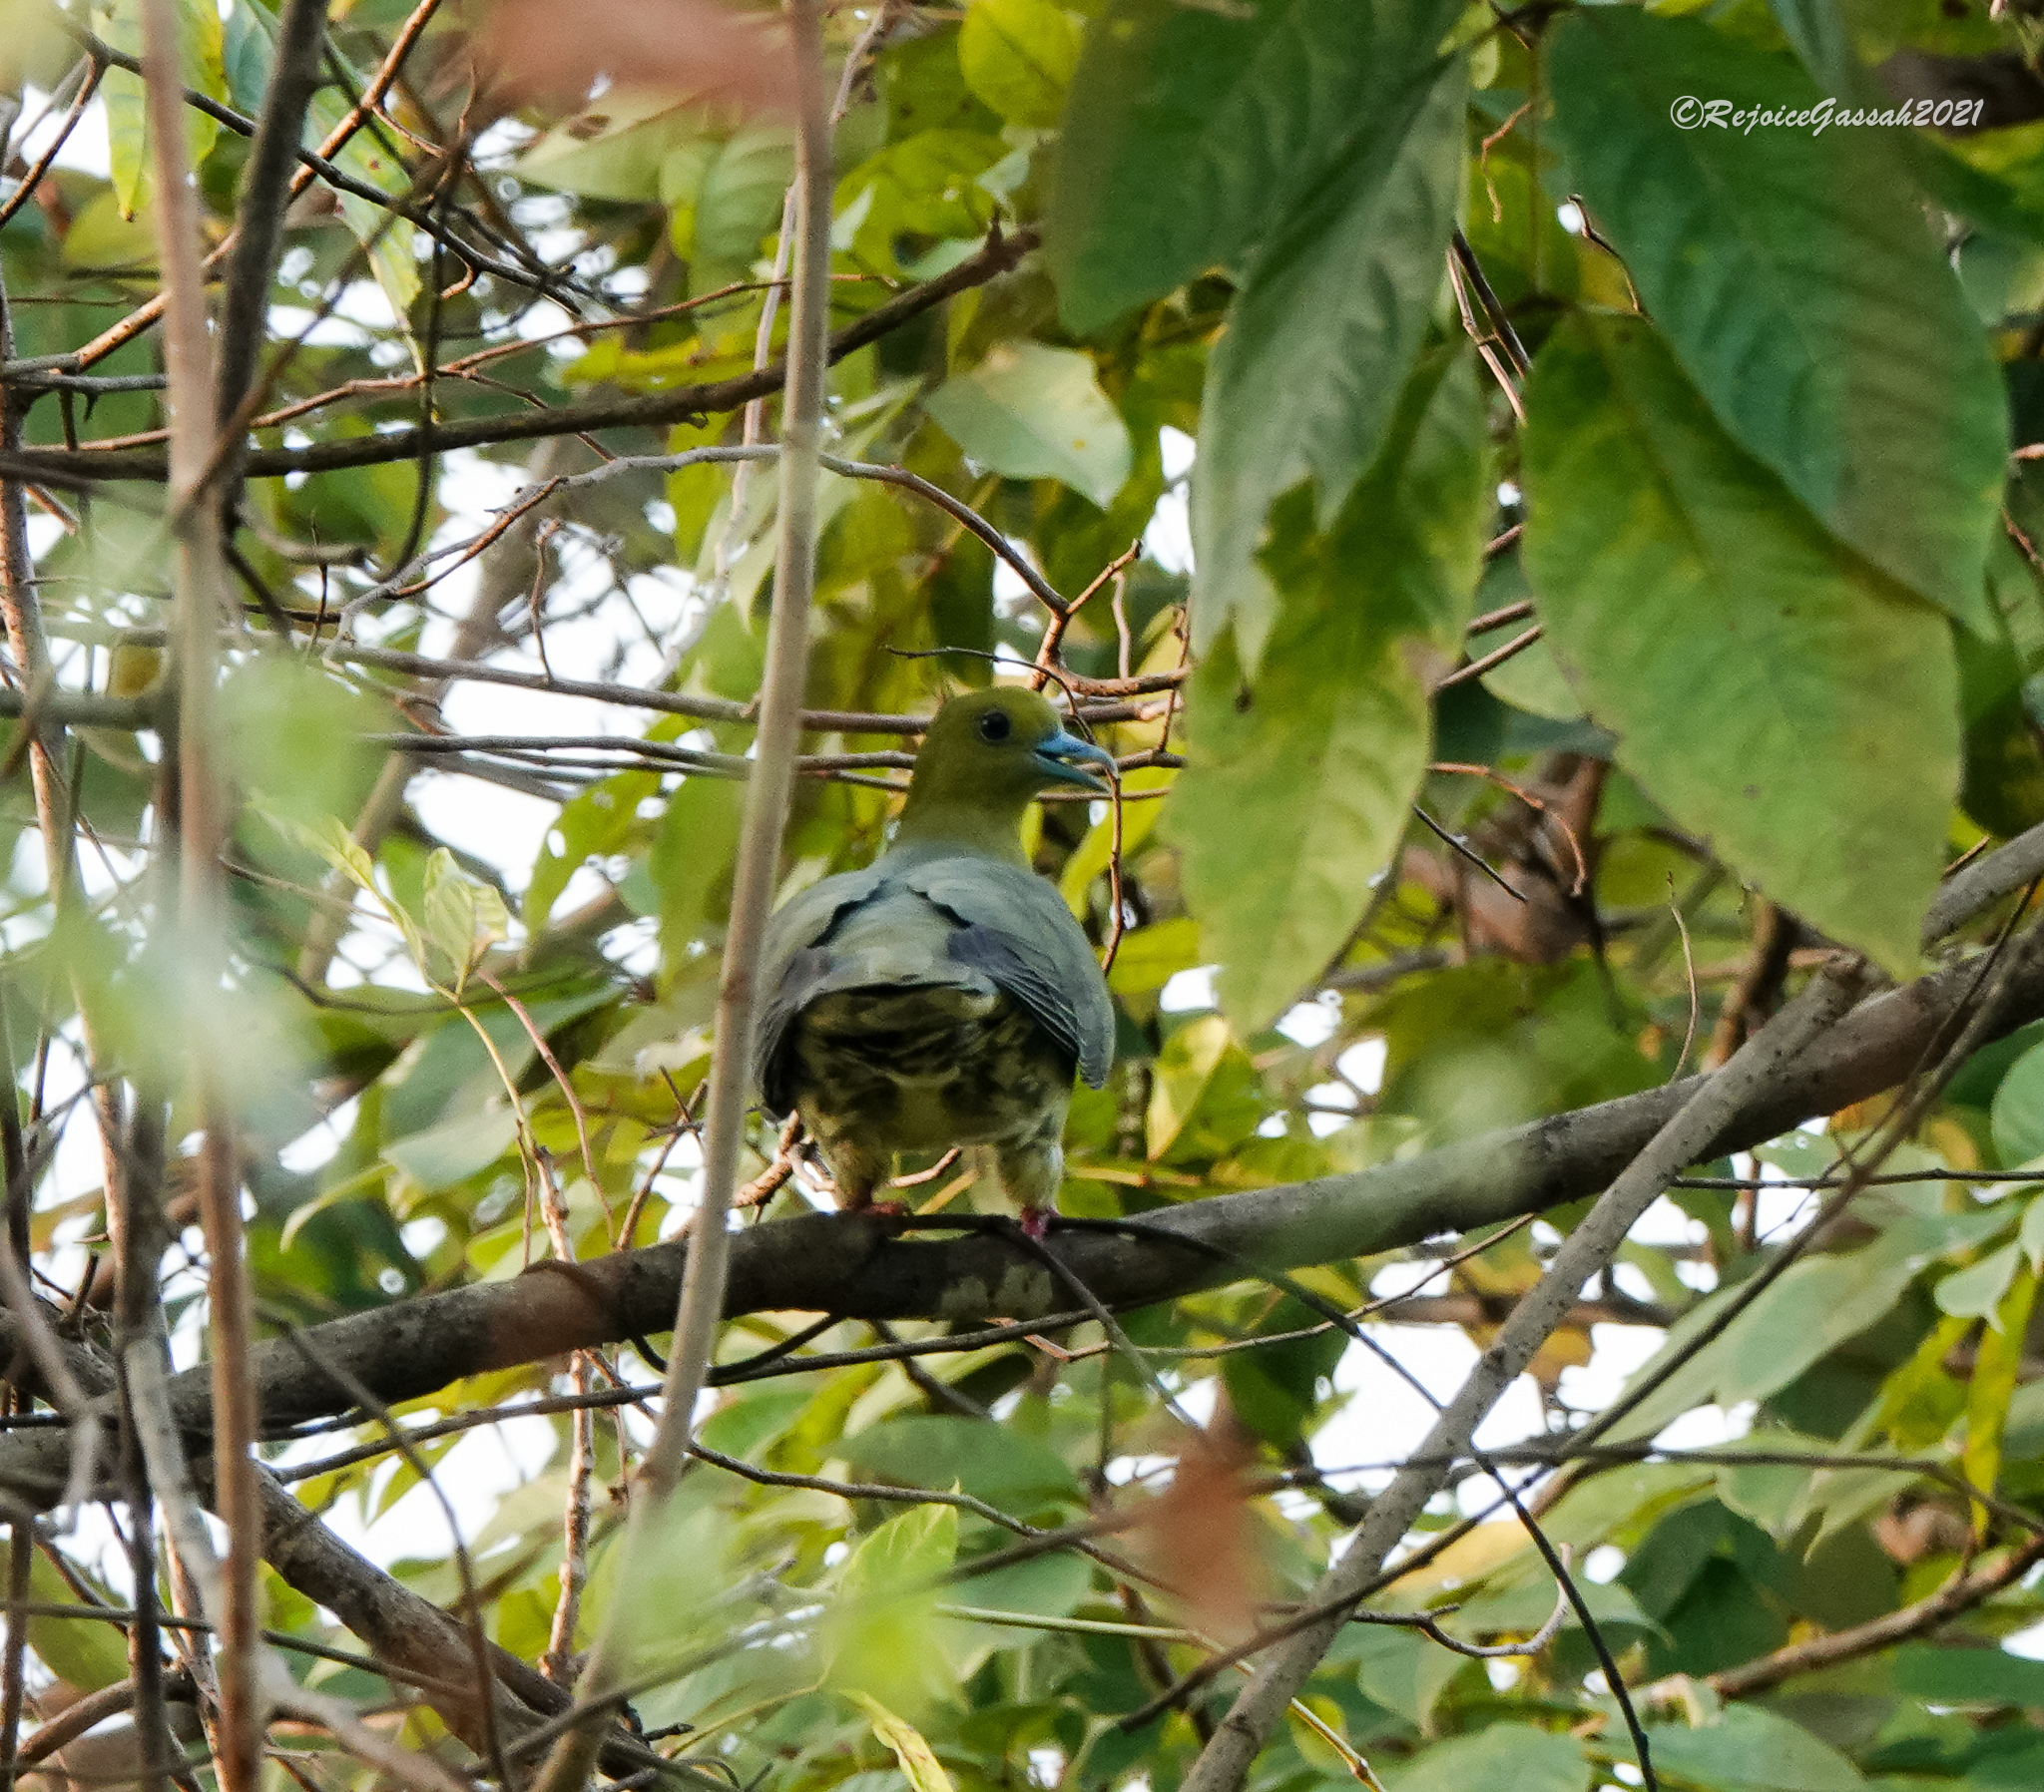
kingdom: Animalia
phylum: Chordata
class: Aves
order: Columbiformes
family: Columbidae
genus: Treron
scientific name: Treron sphenurus
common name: Wedge-tailed green pigeon
